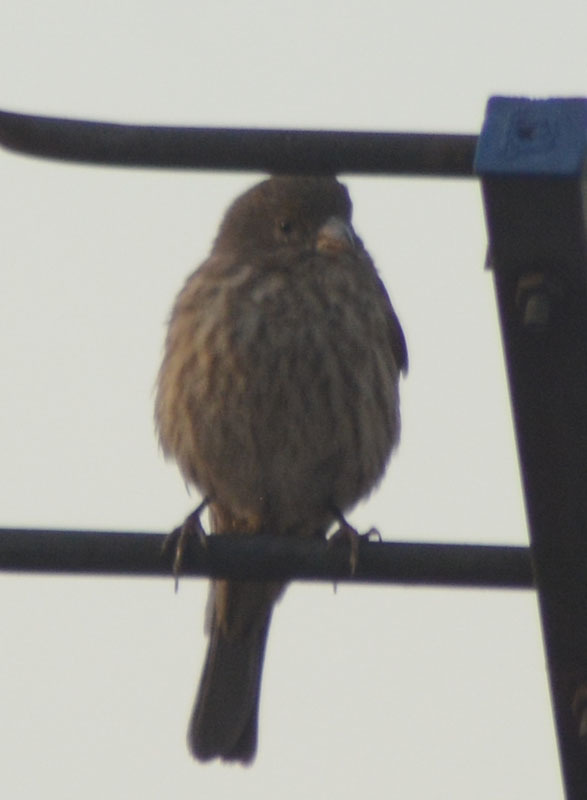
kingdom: Animalia
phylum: Chordata
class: Aves
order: Passeriformes
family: Fringillidae
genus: Haemorhous
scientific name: Haemorhous mexicanus
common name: House finch
